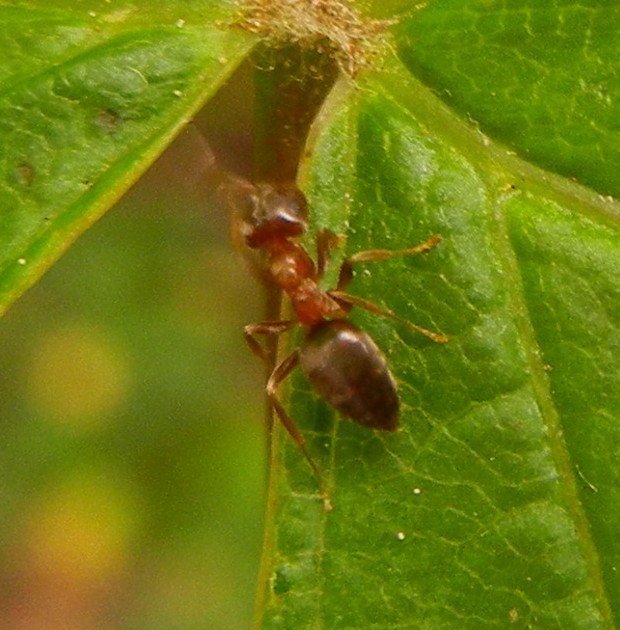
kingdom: Animalia
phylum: Arthropoda
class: Insecta
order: Hymenoptera
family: Formicidae
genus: Lasius
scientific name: Lasius brunneus
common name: Brown ant
